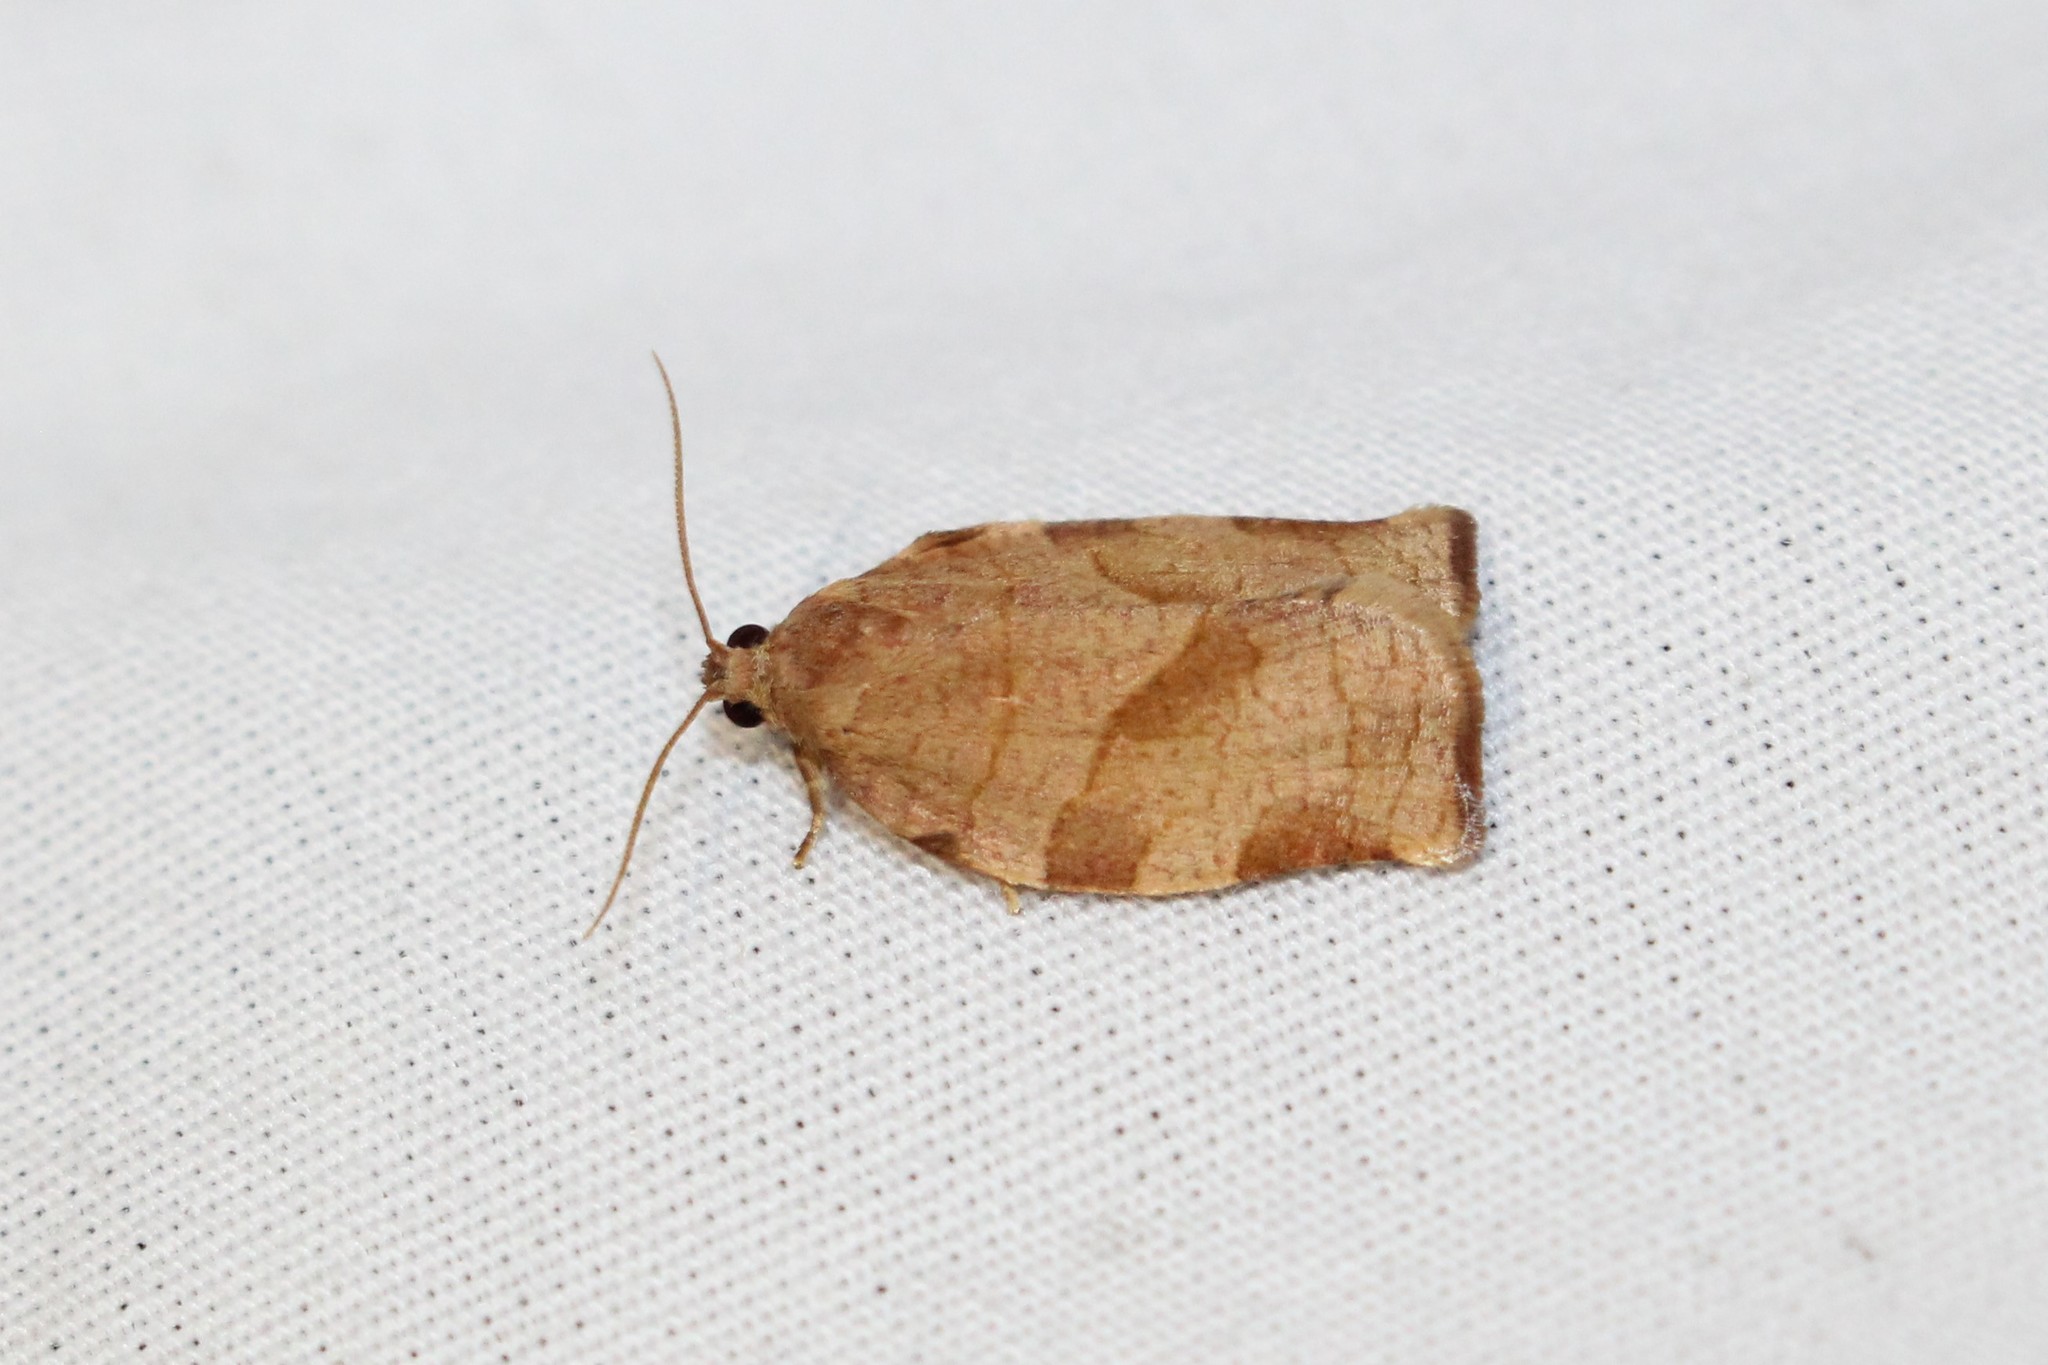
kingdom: Animalia
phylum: Arthropoda
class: Insecta
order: Lepidoptera
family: Tortricidae
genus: Choristoneura
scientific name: Choristoneura rosaceana
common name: Oblique-banded leafroller moth
